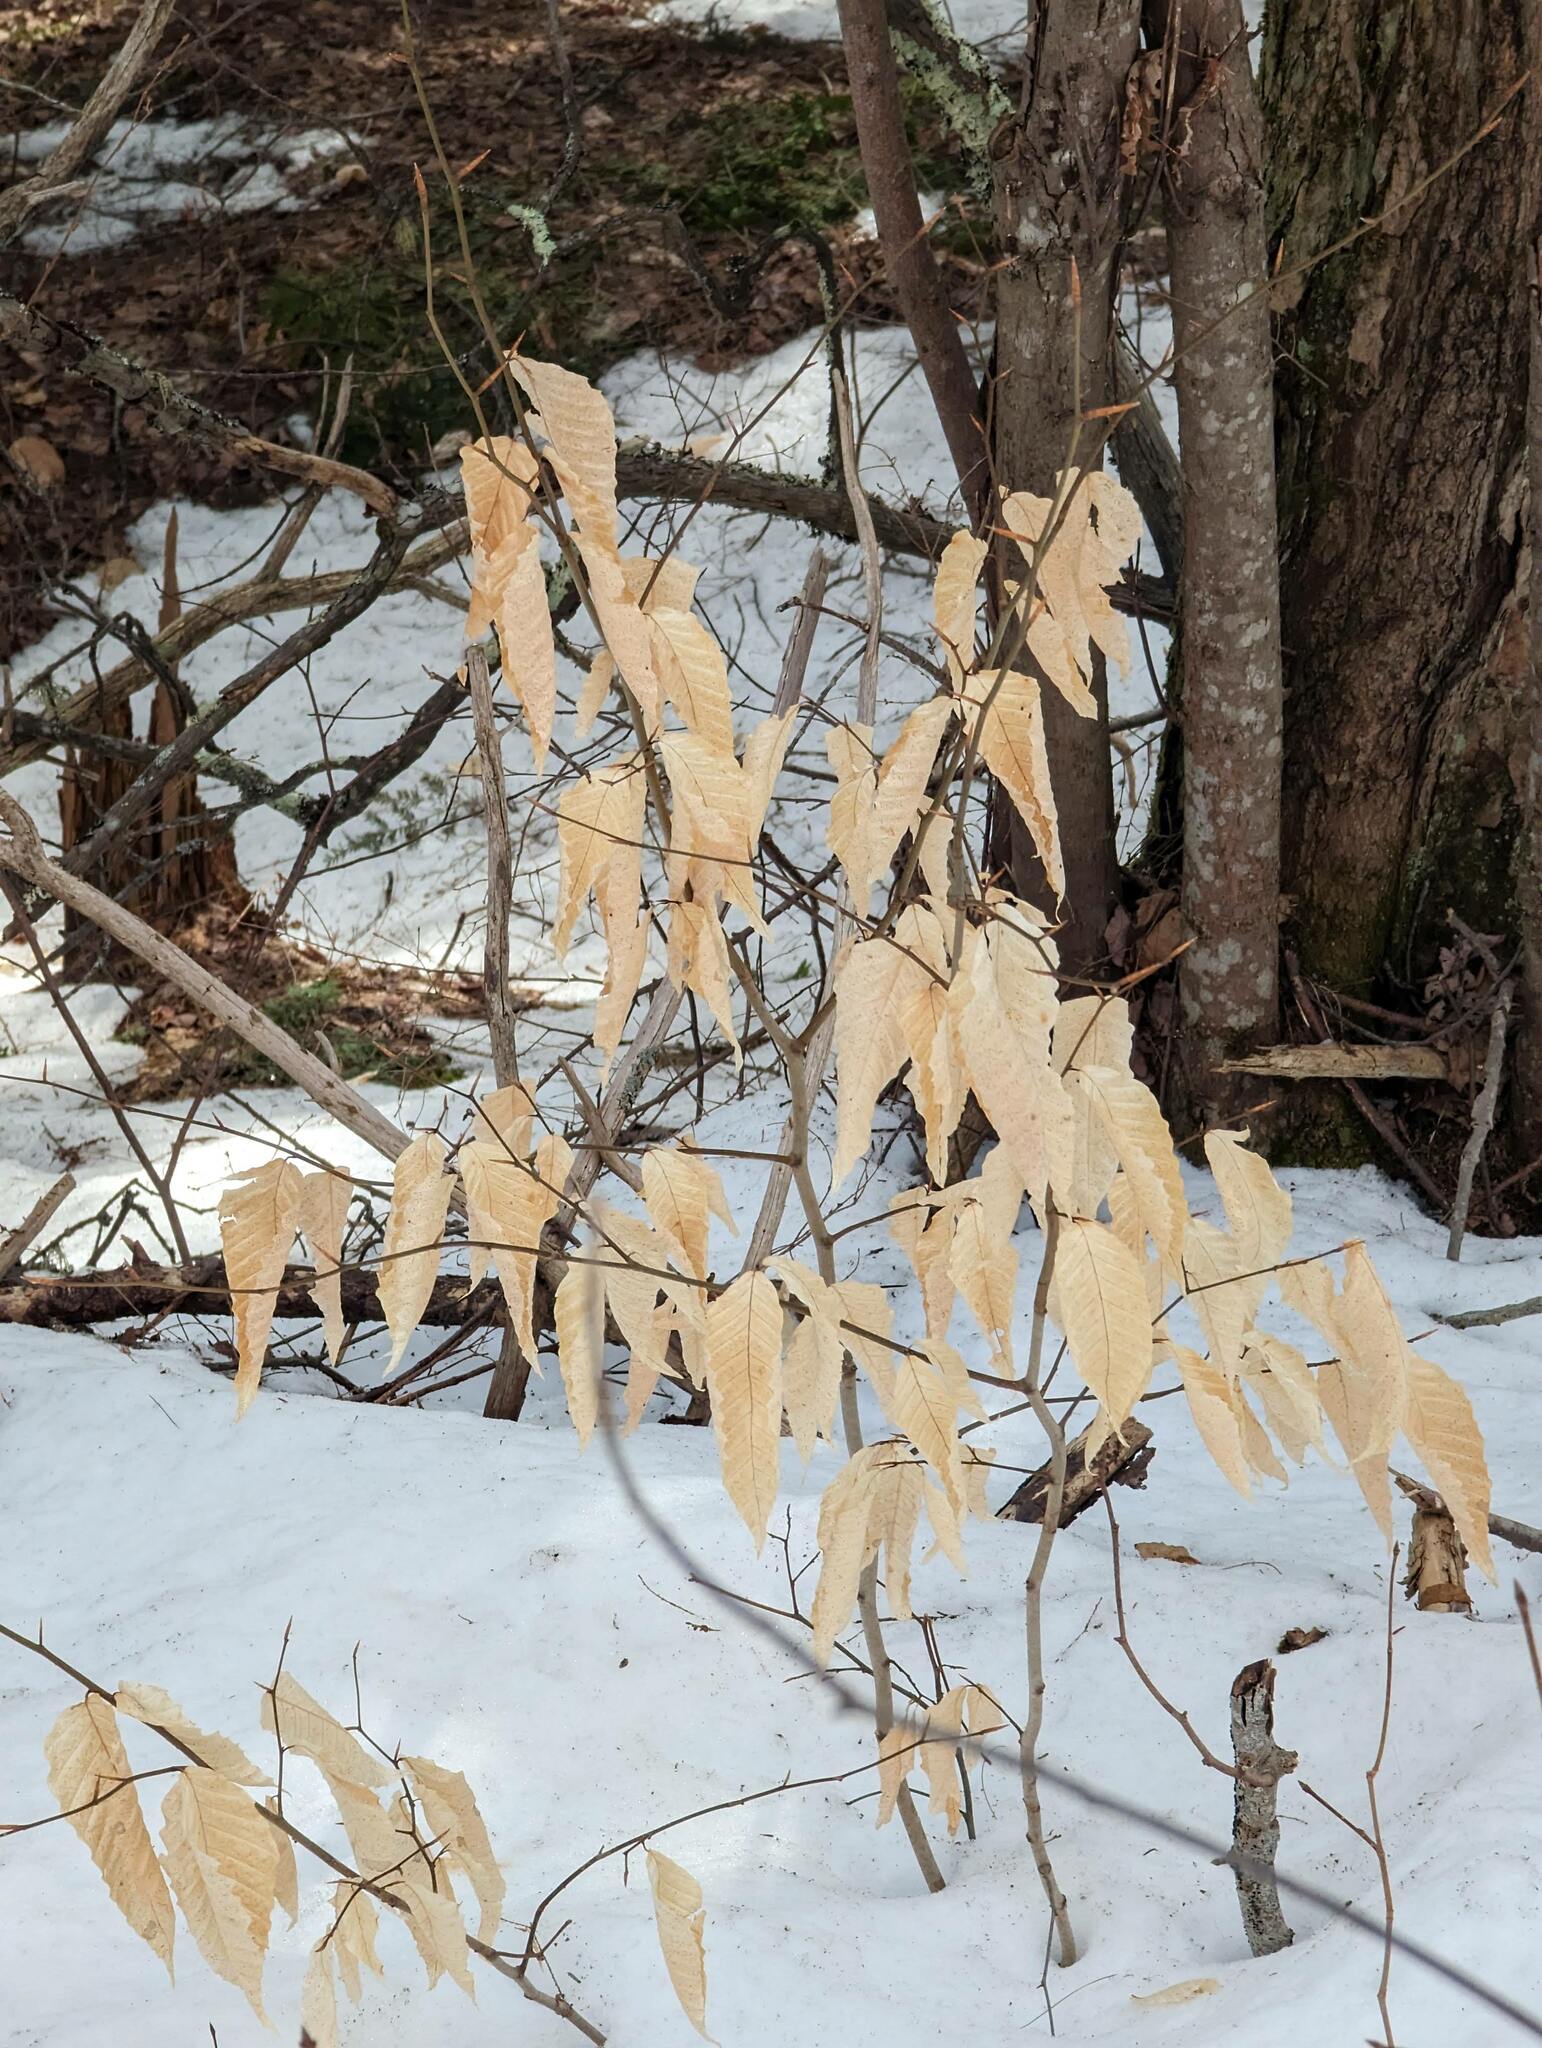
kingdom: Plantae
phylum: Tracheophyta
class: Magnoliopsida
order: Fagales
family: Fagaceae
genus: Fagus
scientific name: Fagus grandifolia
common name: American beech
